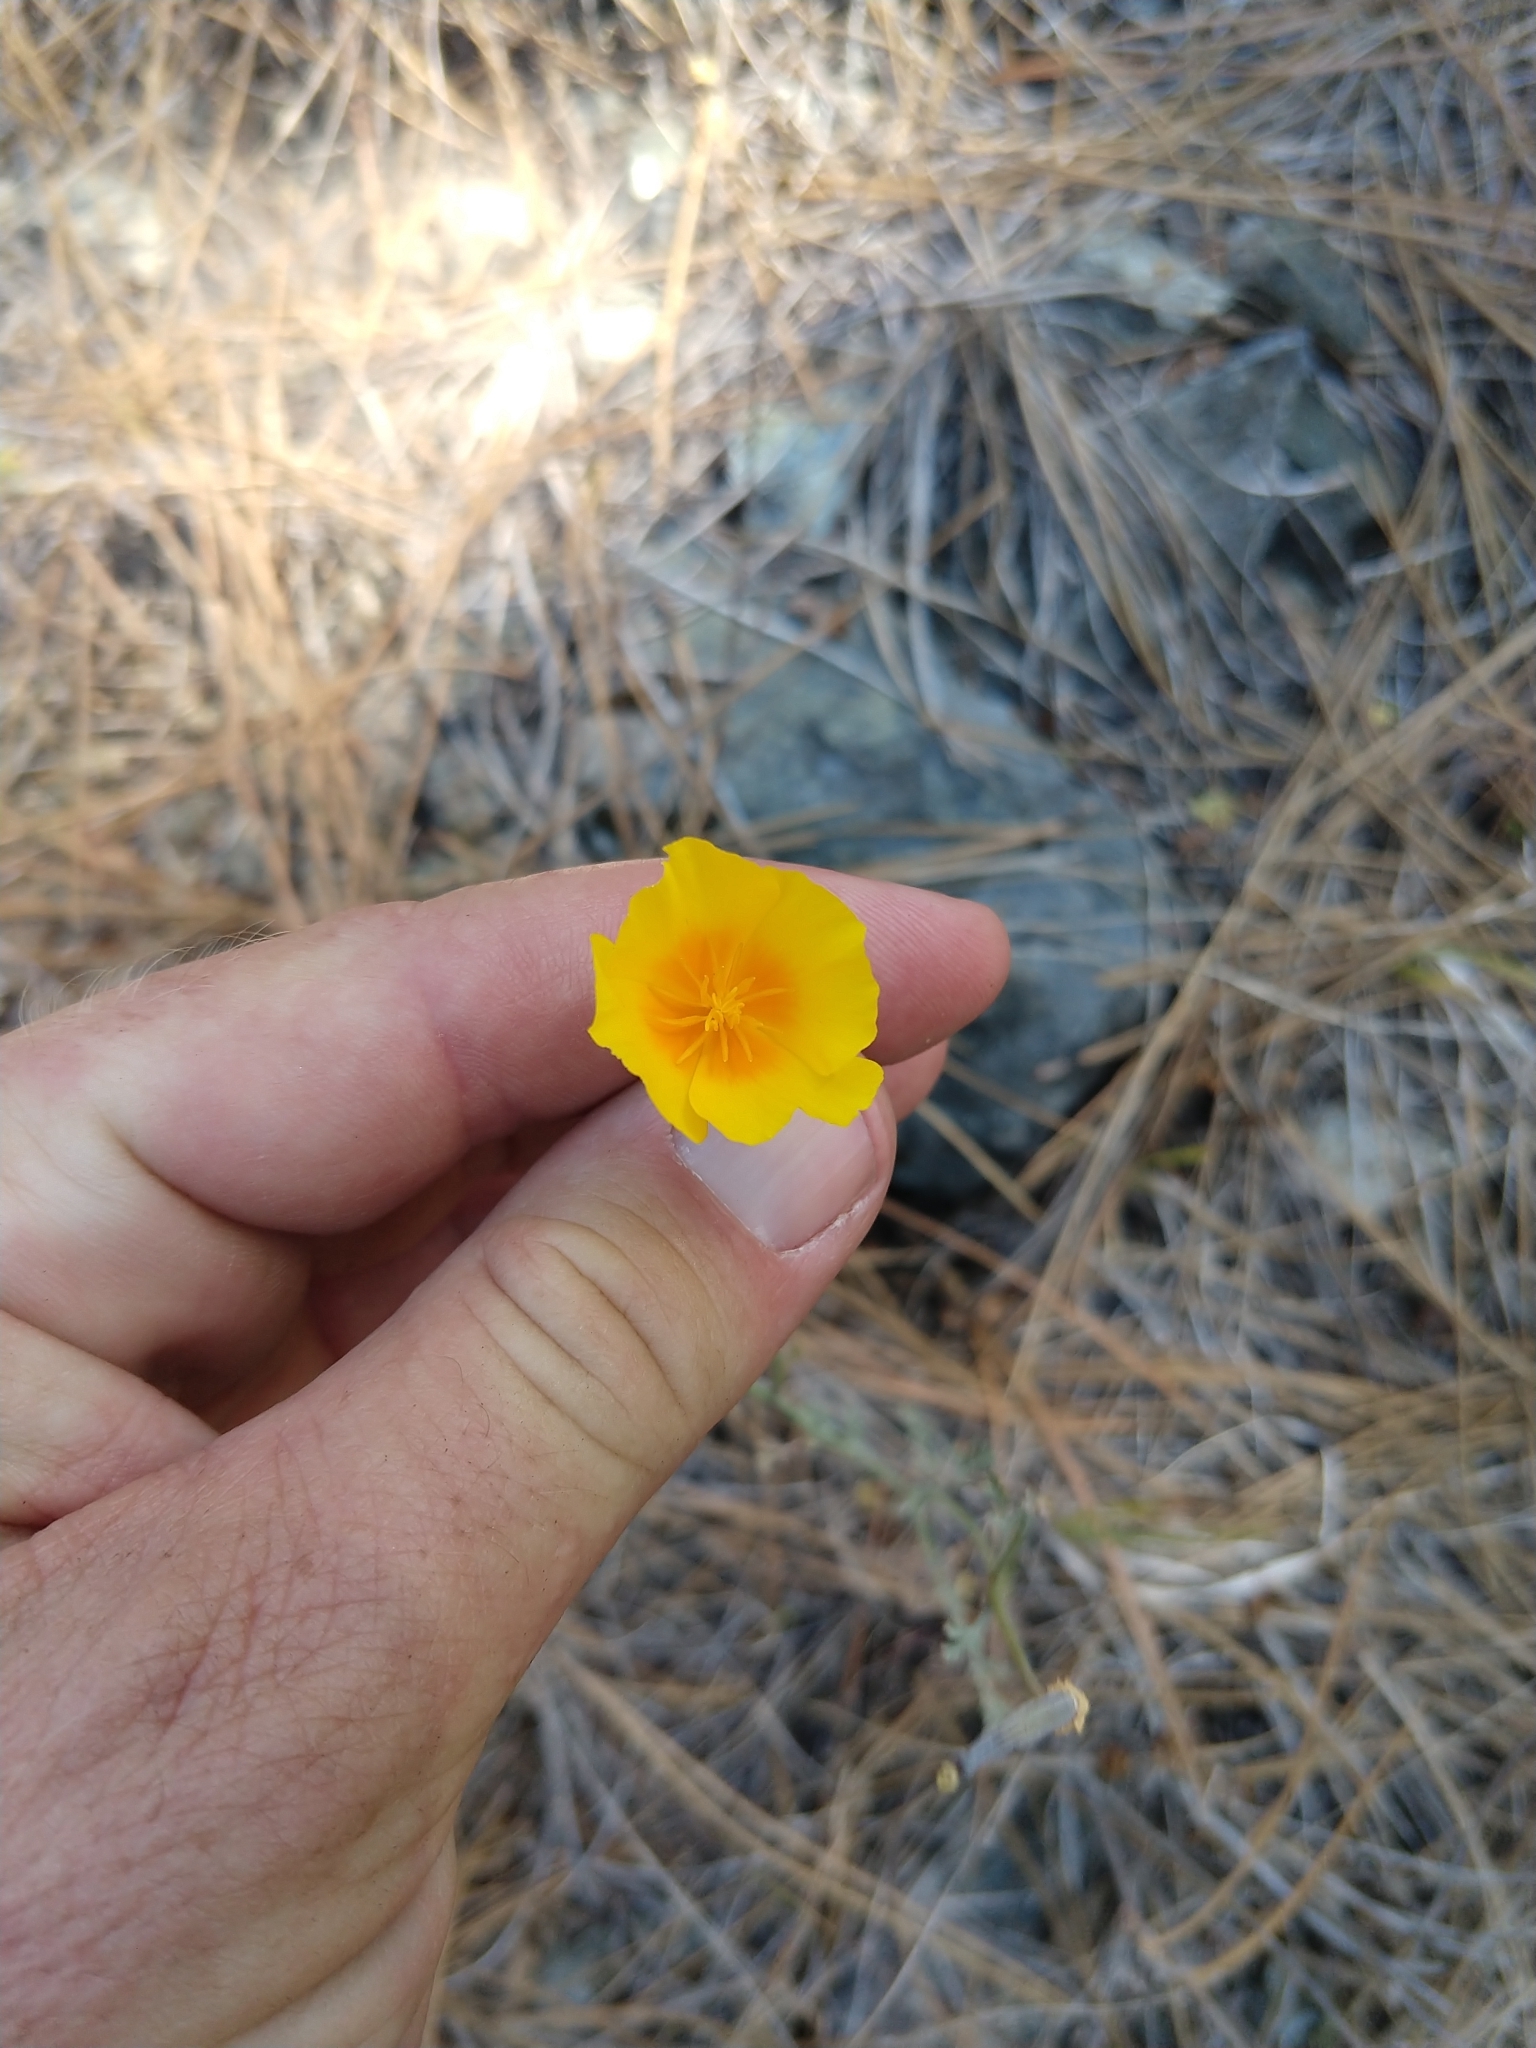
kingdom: Plantae
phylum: Tracheophyta
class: Magnoliopsida
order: Ranunculales
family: Papaveraceae
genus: Eschscholzia
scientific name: Eschscholzia californica
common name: California poppy
